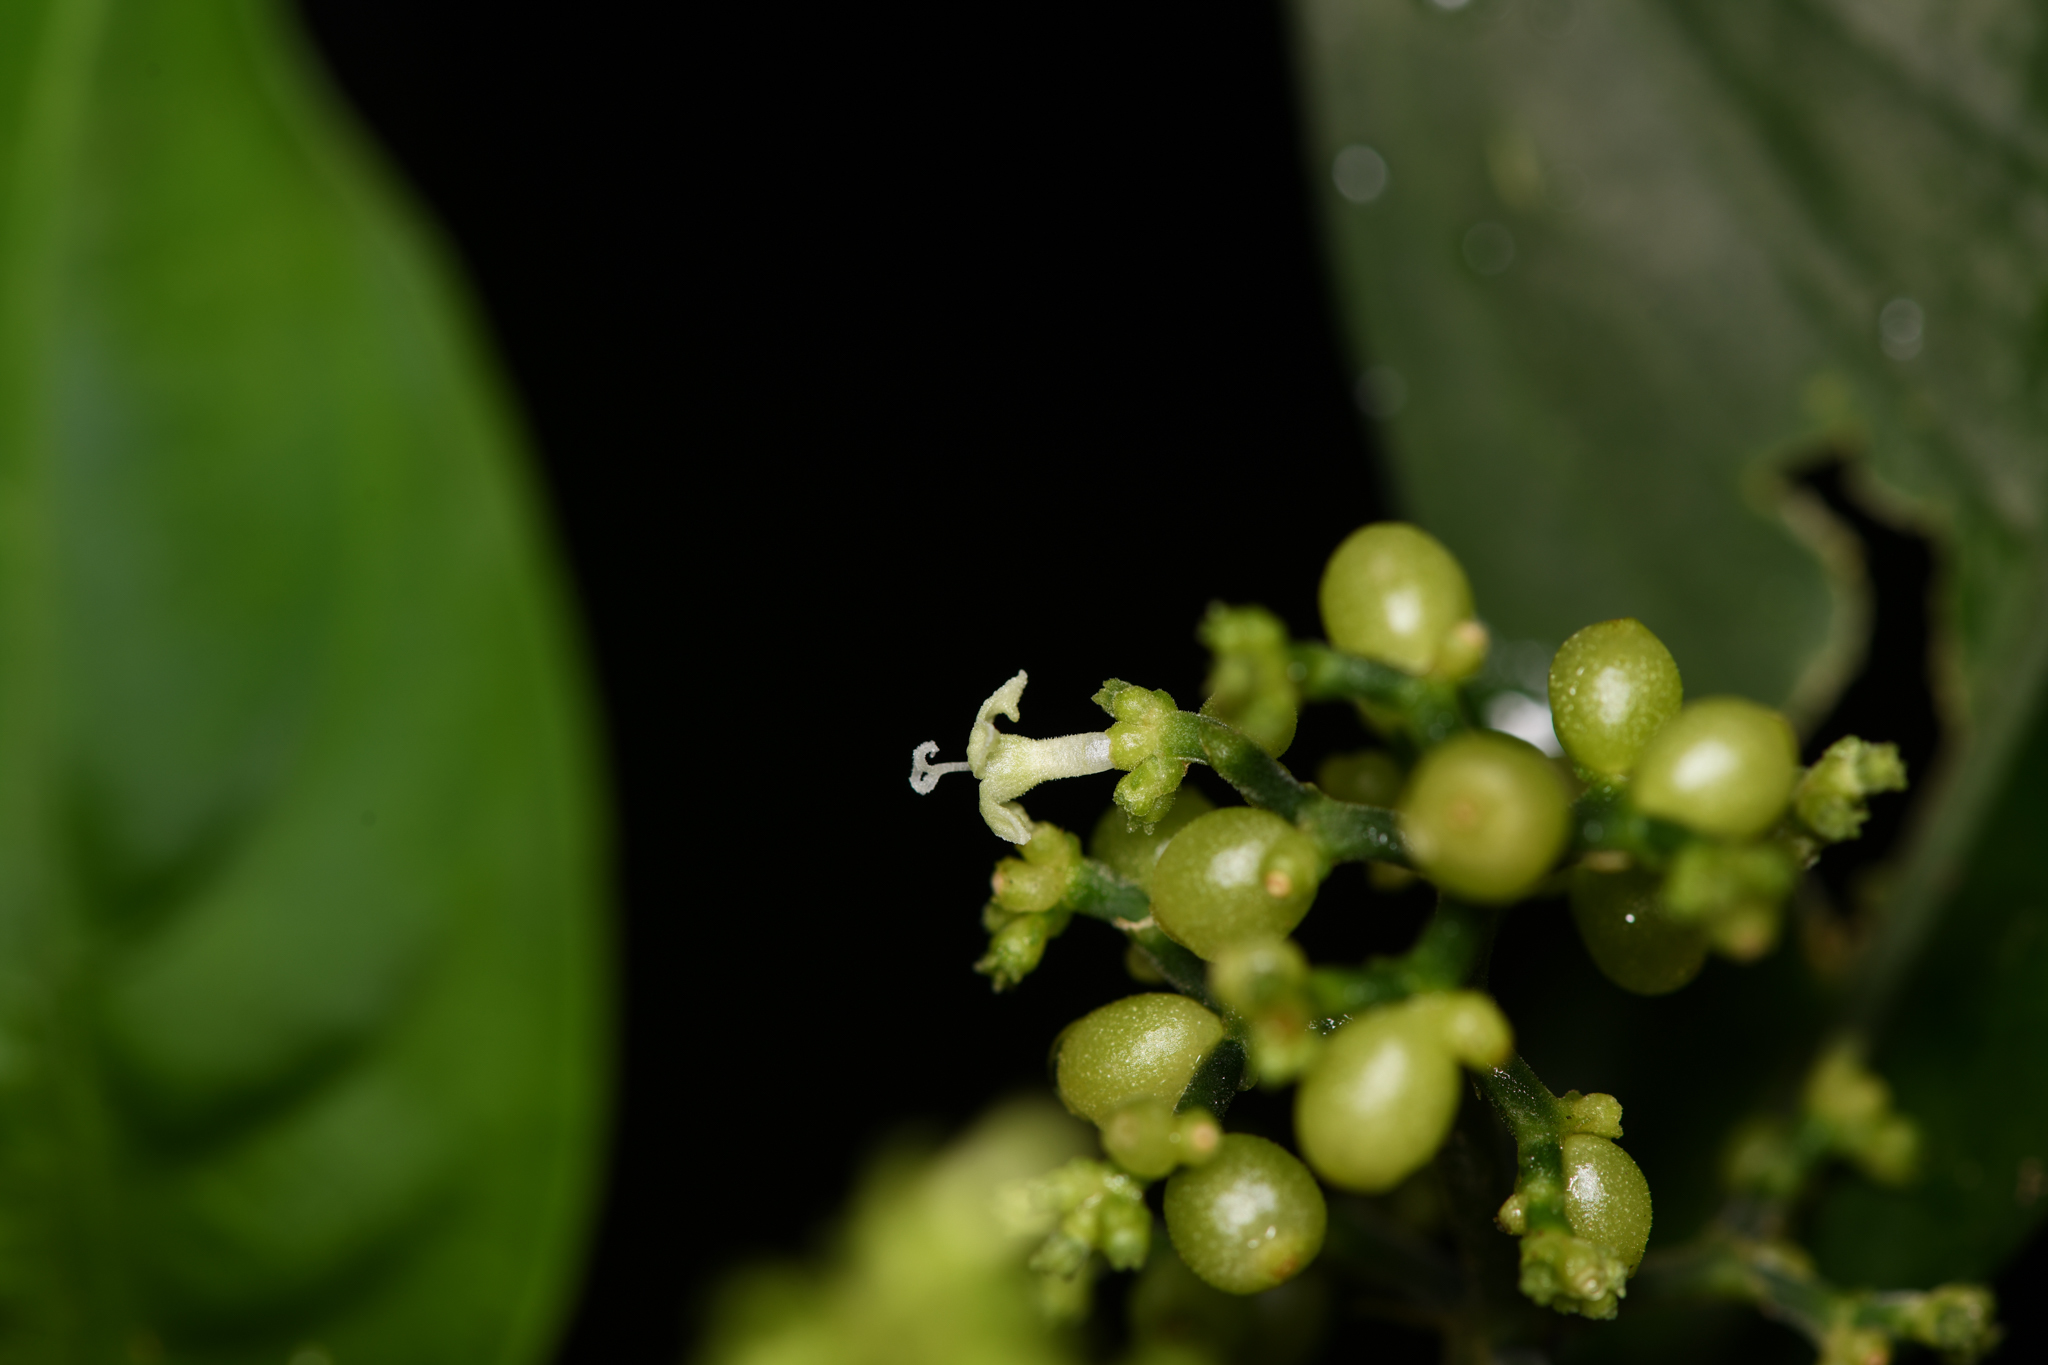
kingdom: Plantae
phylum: Tracheophyta
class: Magnoliopsida
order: Gentianales
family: Rubiaceae
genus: Notopleura
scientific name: Notopleura anomothyrsa
